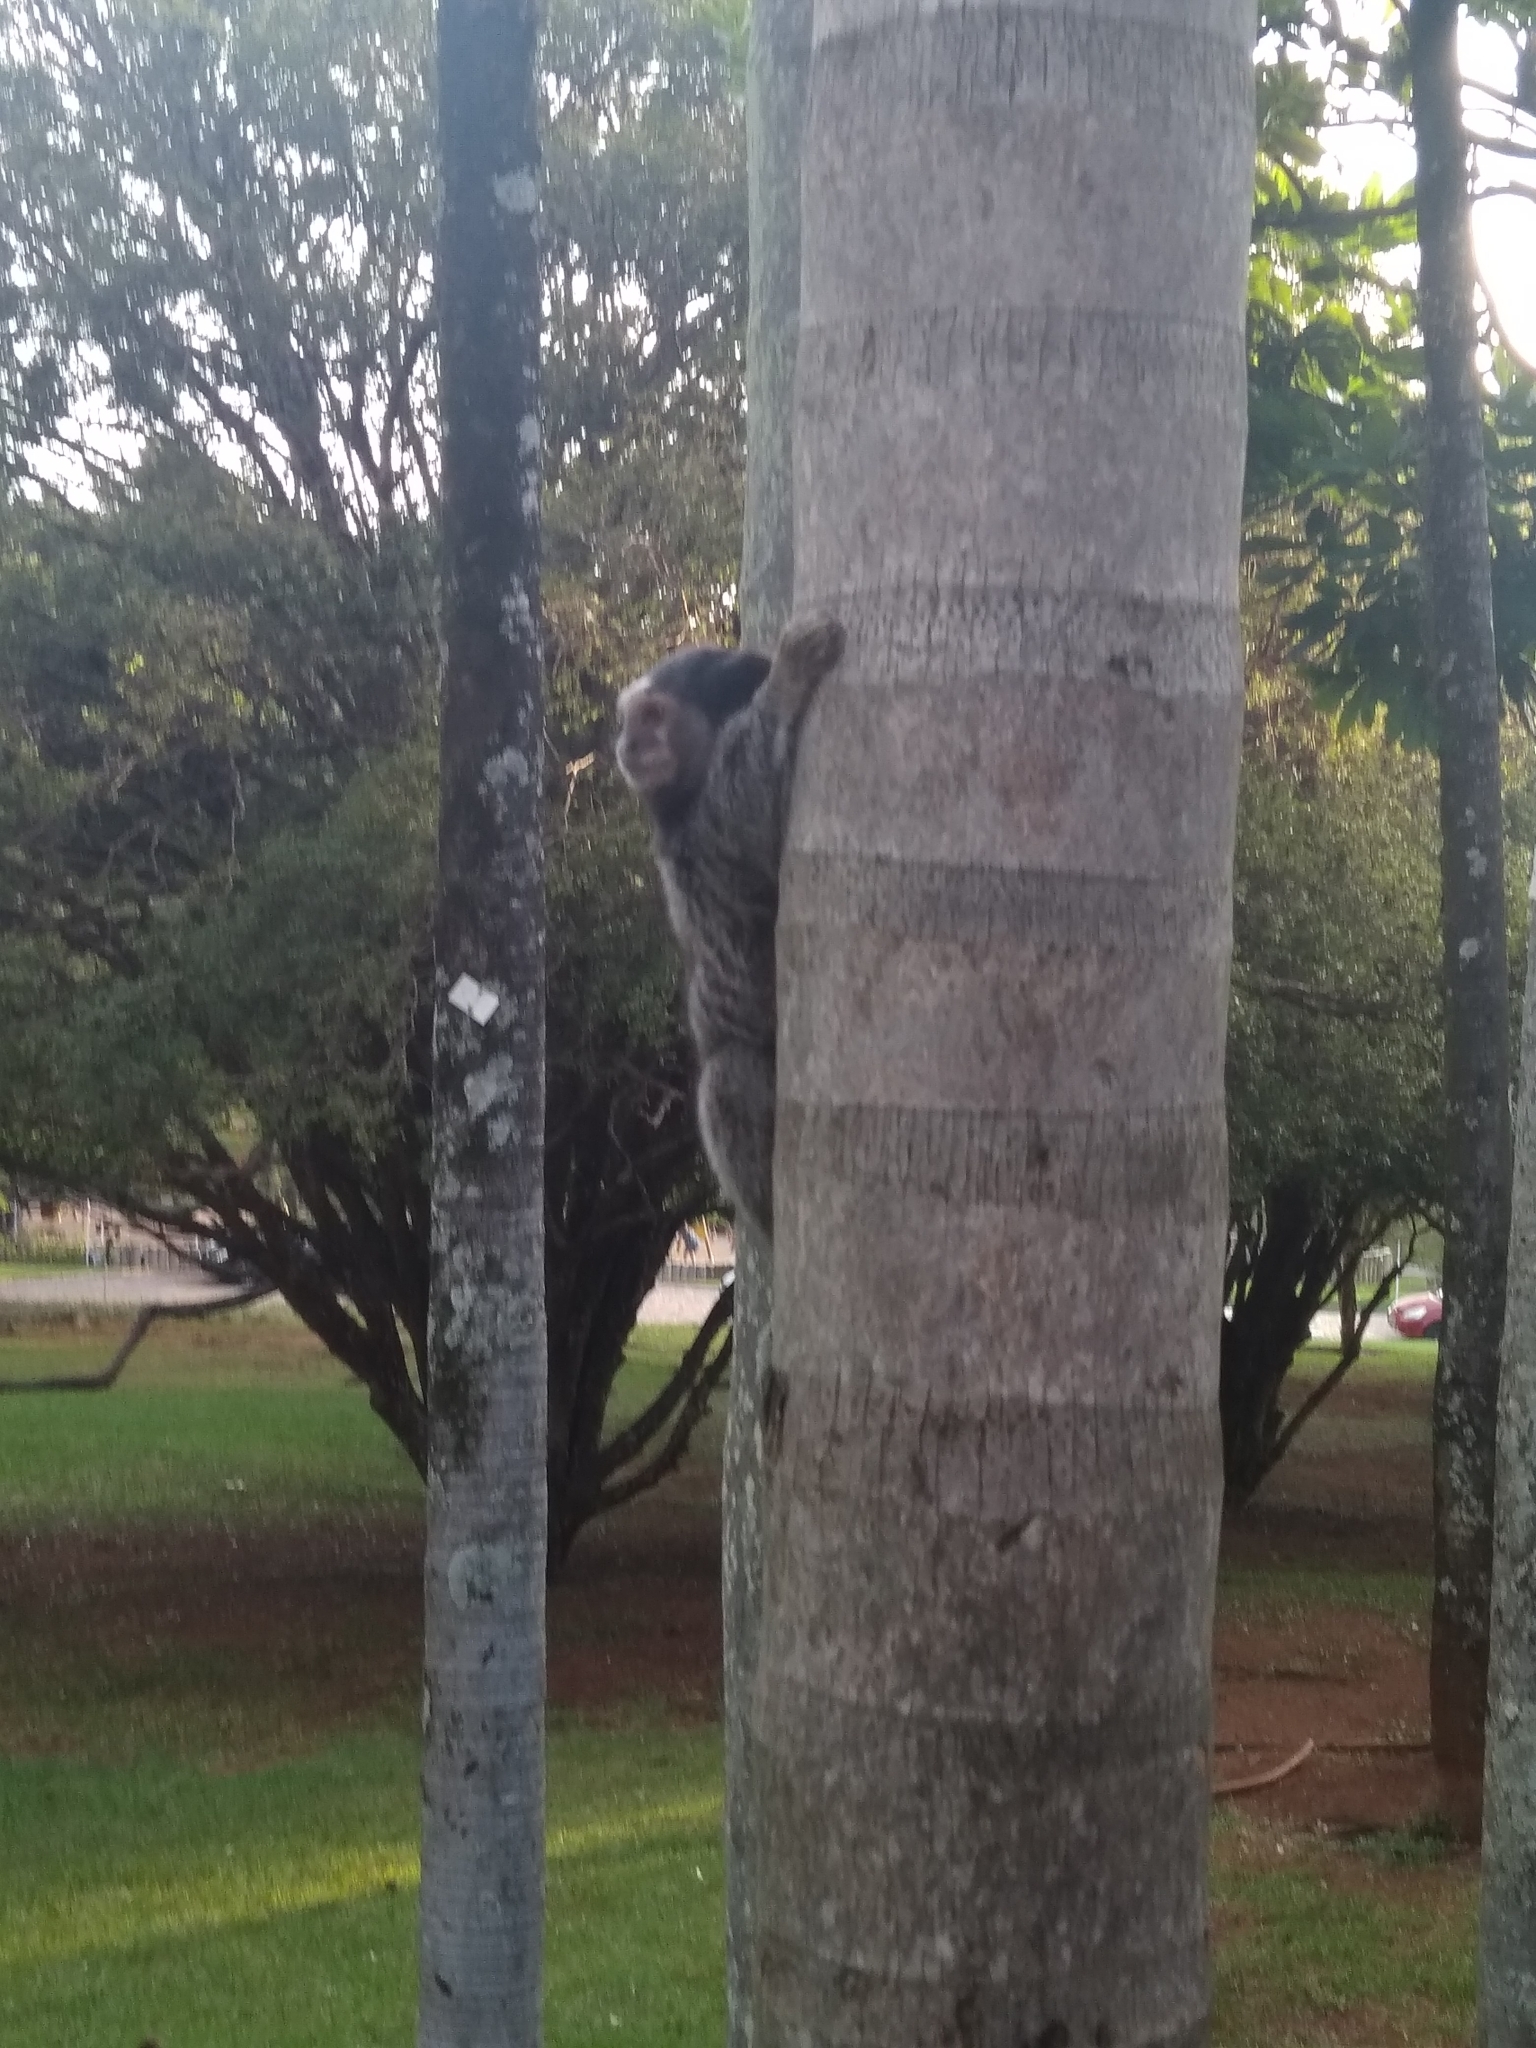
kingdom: Animalia
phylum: Chordata
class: Mammalia
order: Primates
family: Callitrichidae
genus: Callithrix
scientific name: Callithrix penicillata
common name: Black-tufted marmoset
